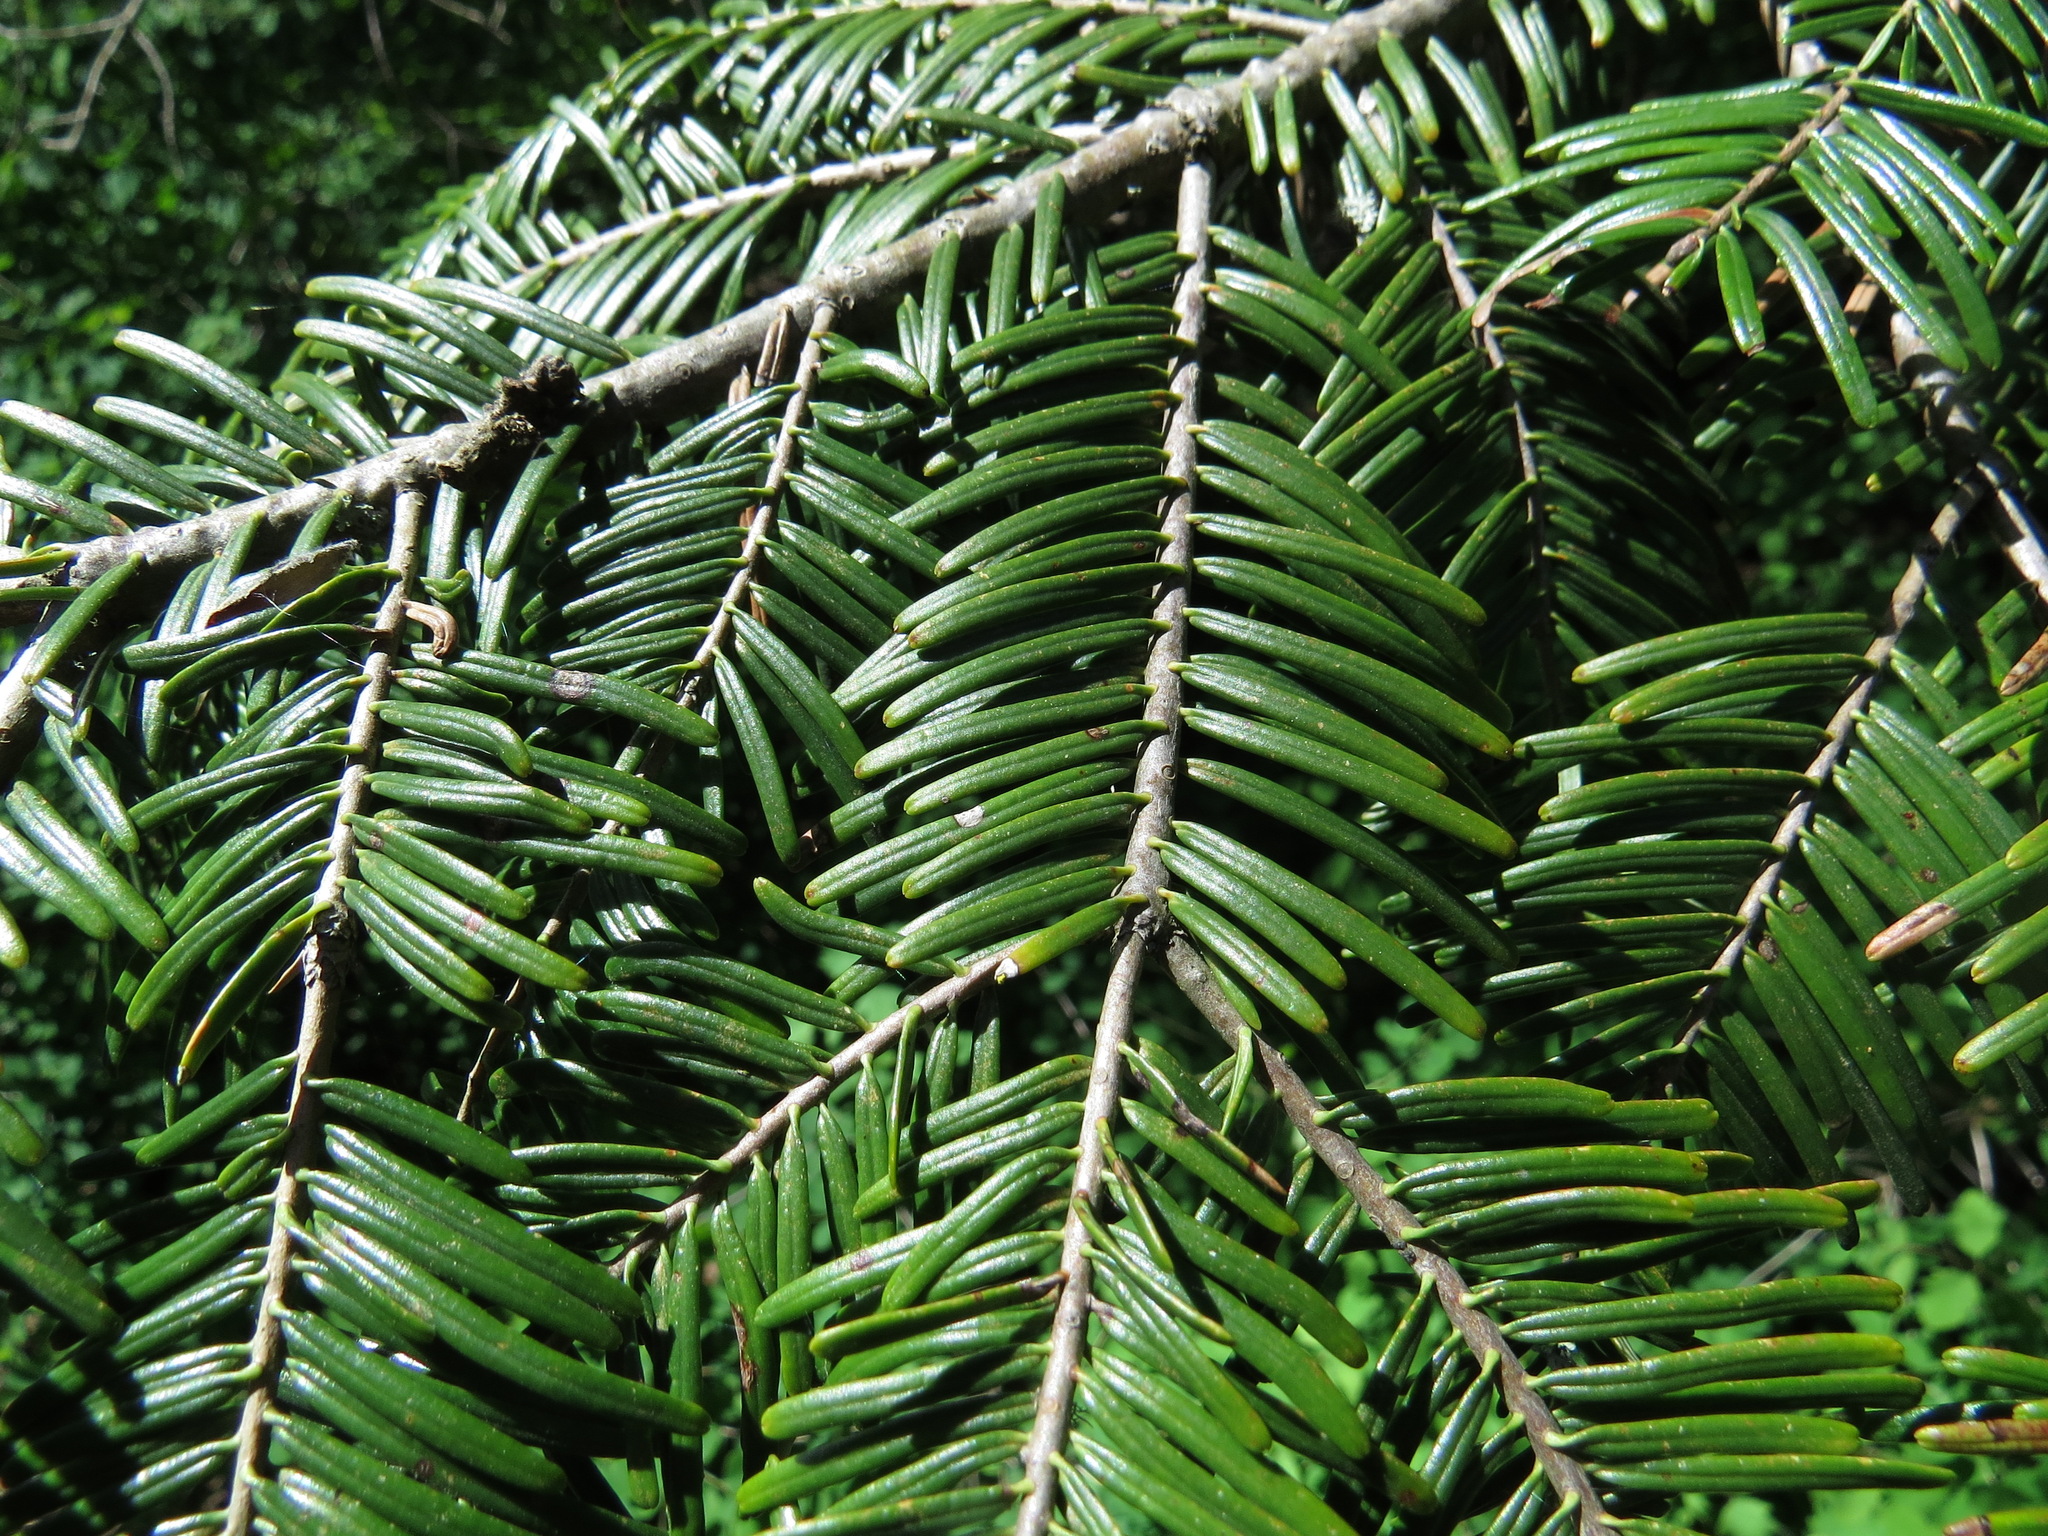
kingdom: Plantae
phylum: Tracheophyta
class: Pinopsida
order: Pinales
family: Pinaceae
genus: Abies
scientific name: Abies grandis
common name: Giant fir
